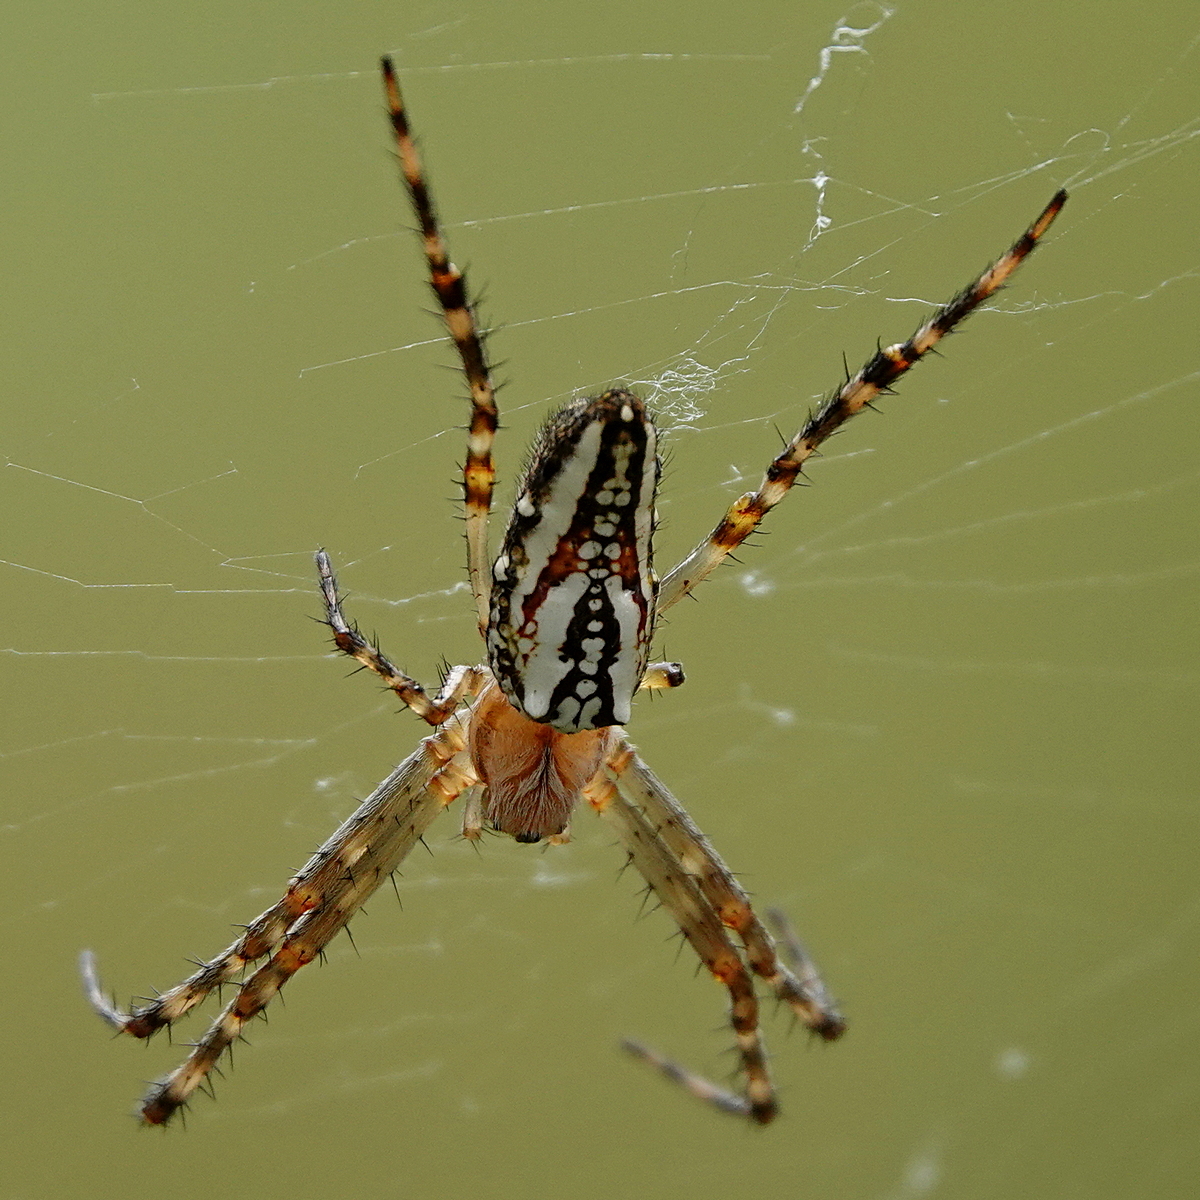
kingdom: Animalia
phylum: Arthropoda
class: Arachnida
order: Araneae
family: Araneidae
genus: Plebs
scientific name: Plebs bradleyi
